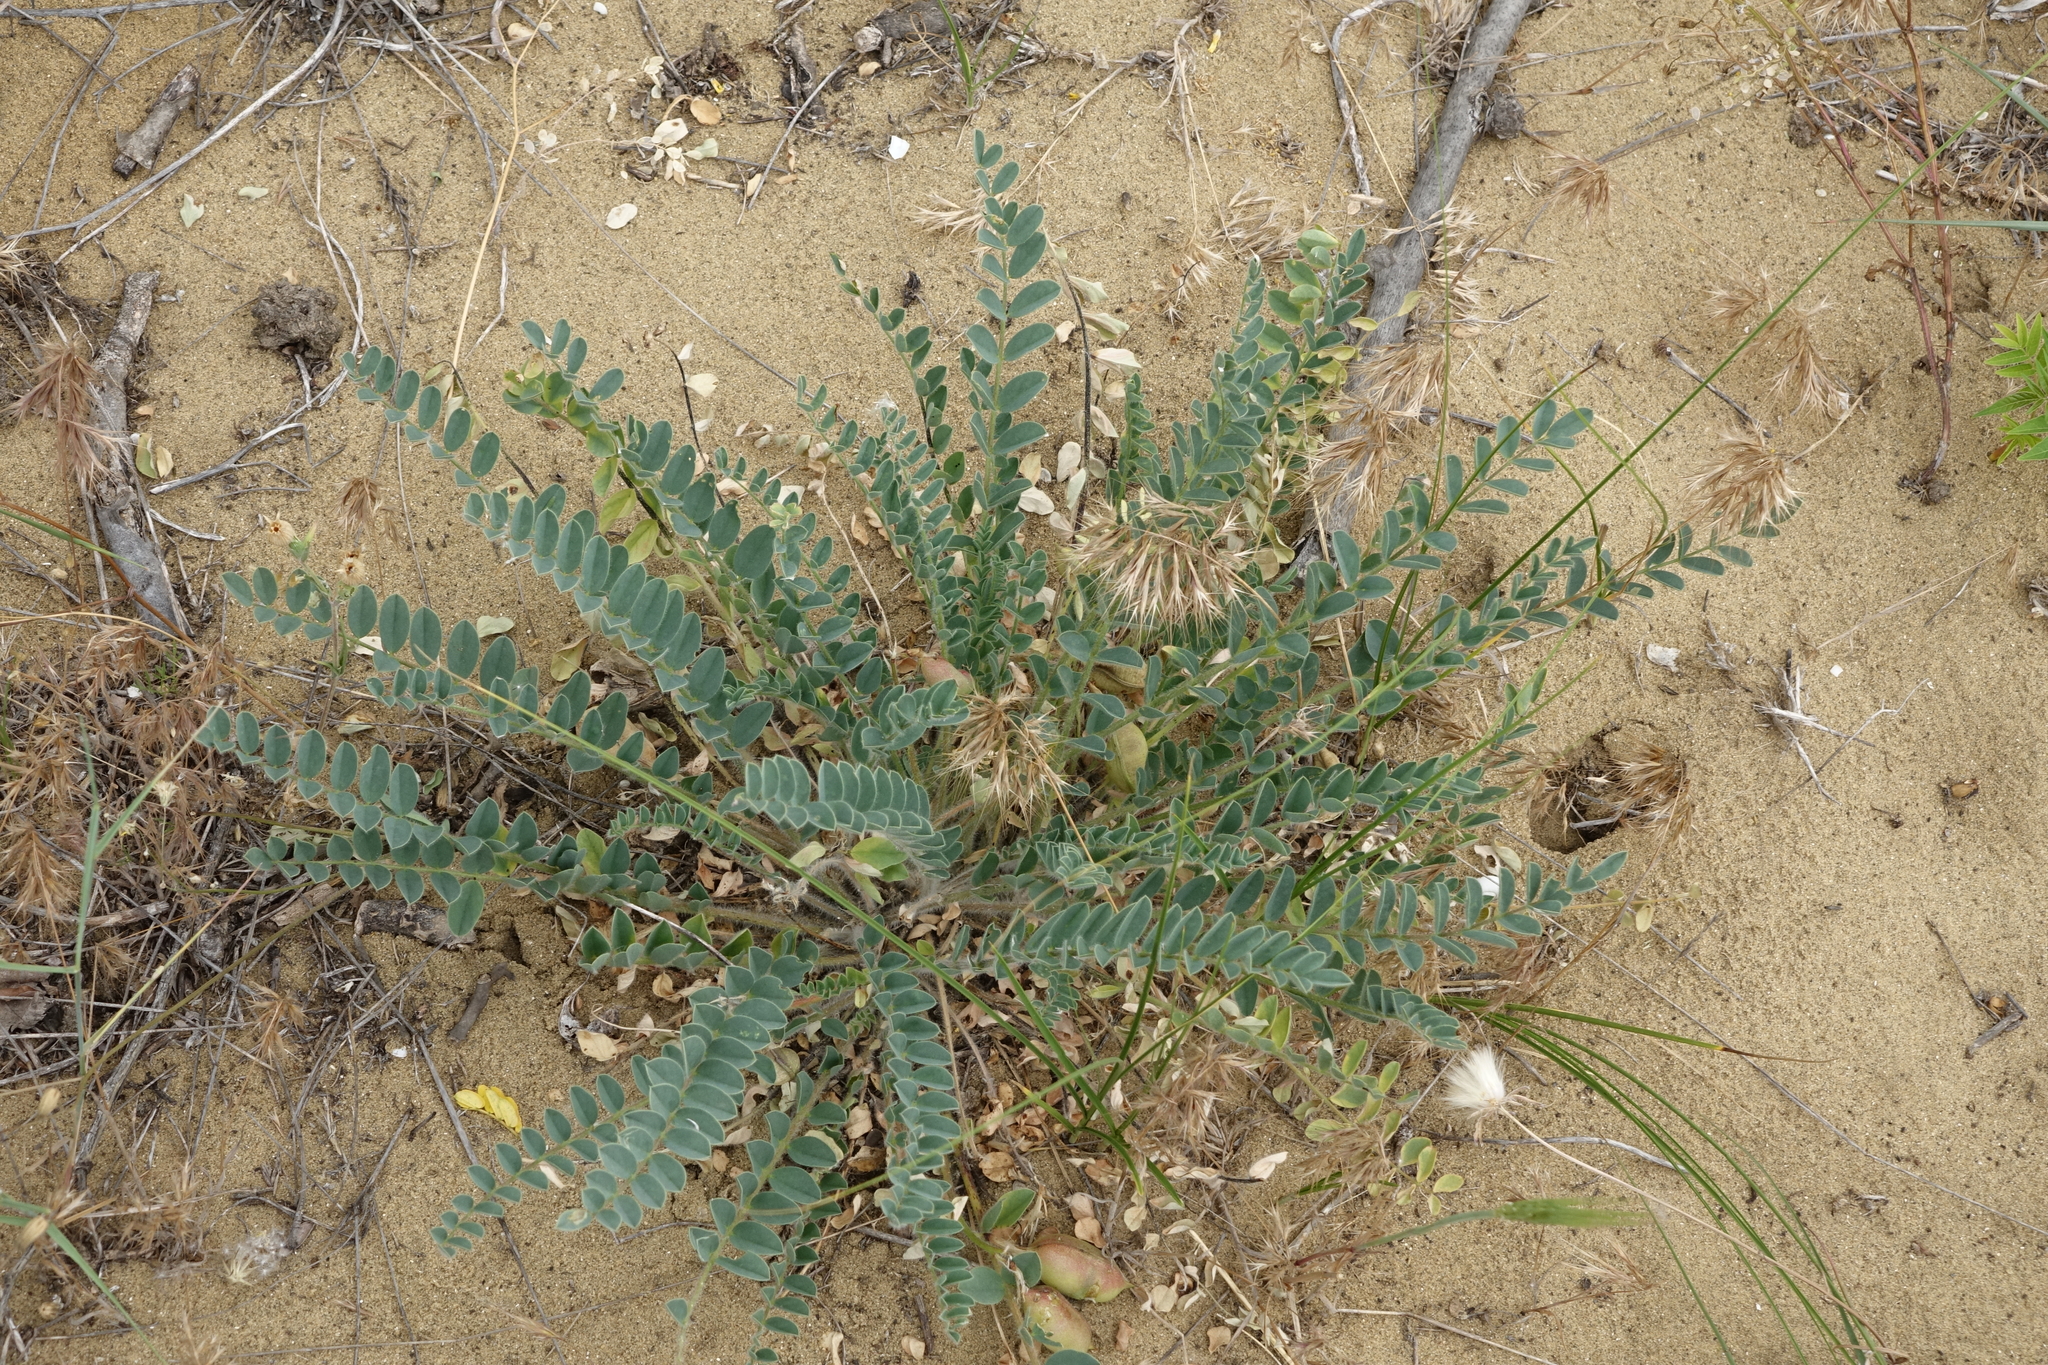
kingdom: Plantae
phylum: Tracheophyta
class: Magnoliopsida
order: Fabales
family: Fabaceae
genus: Astragalus
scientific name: Astragalus longipetalus
